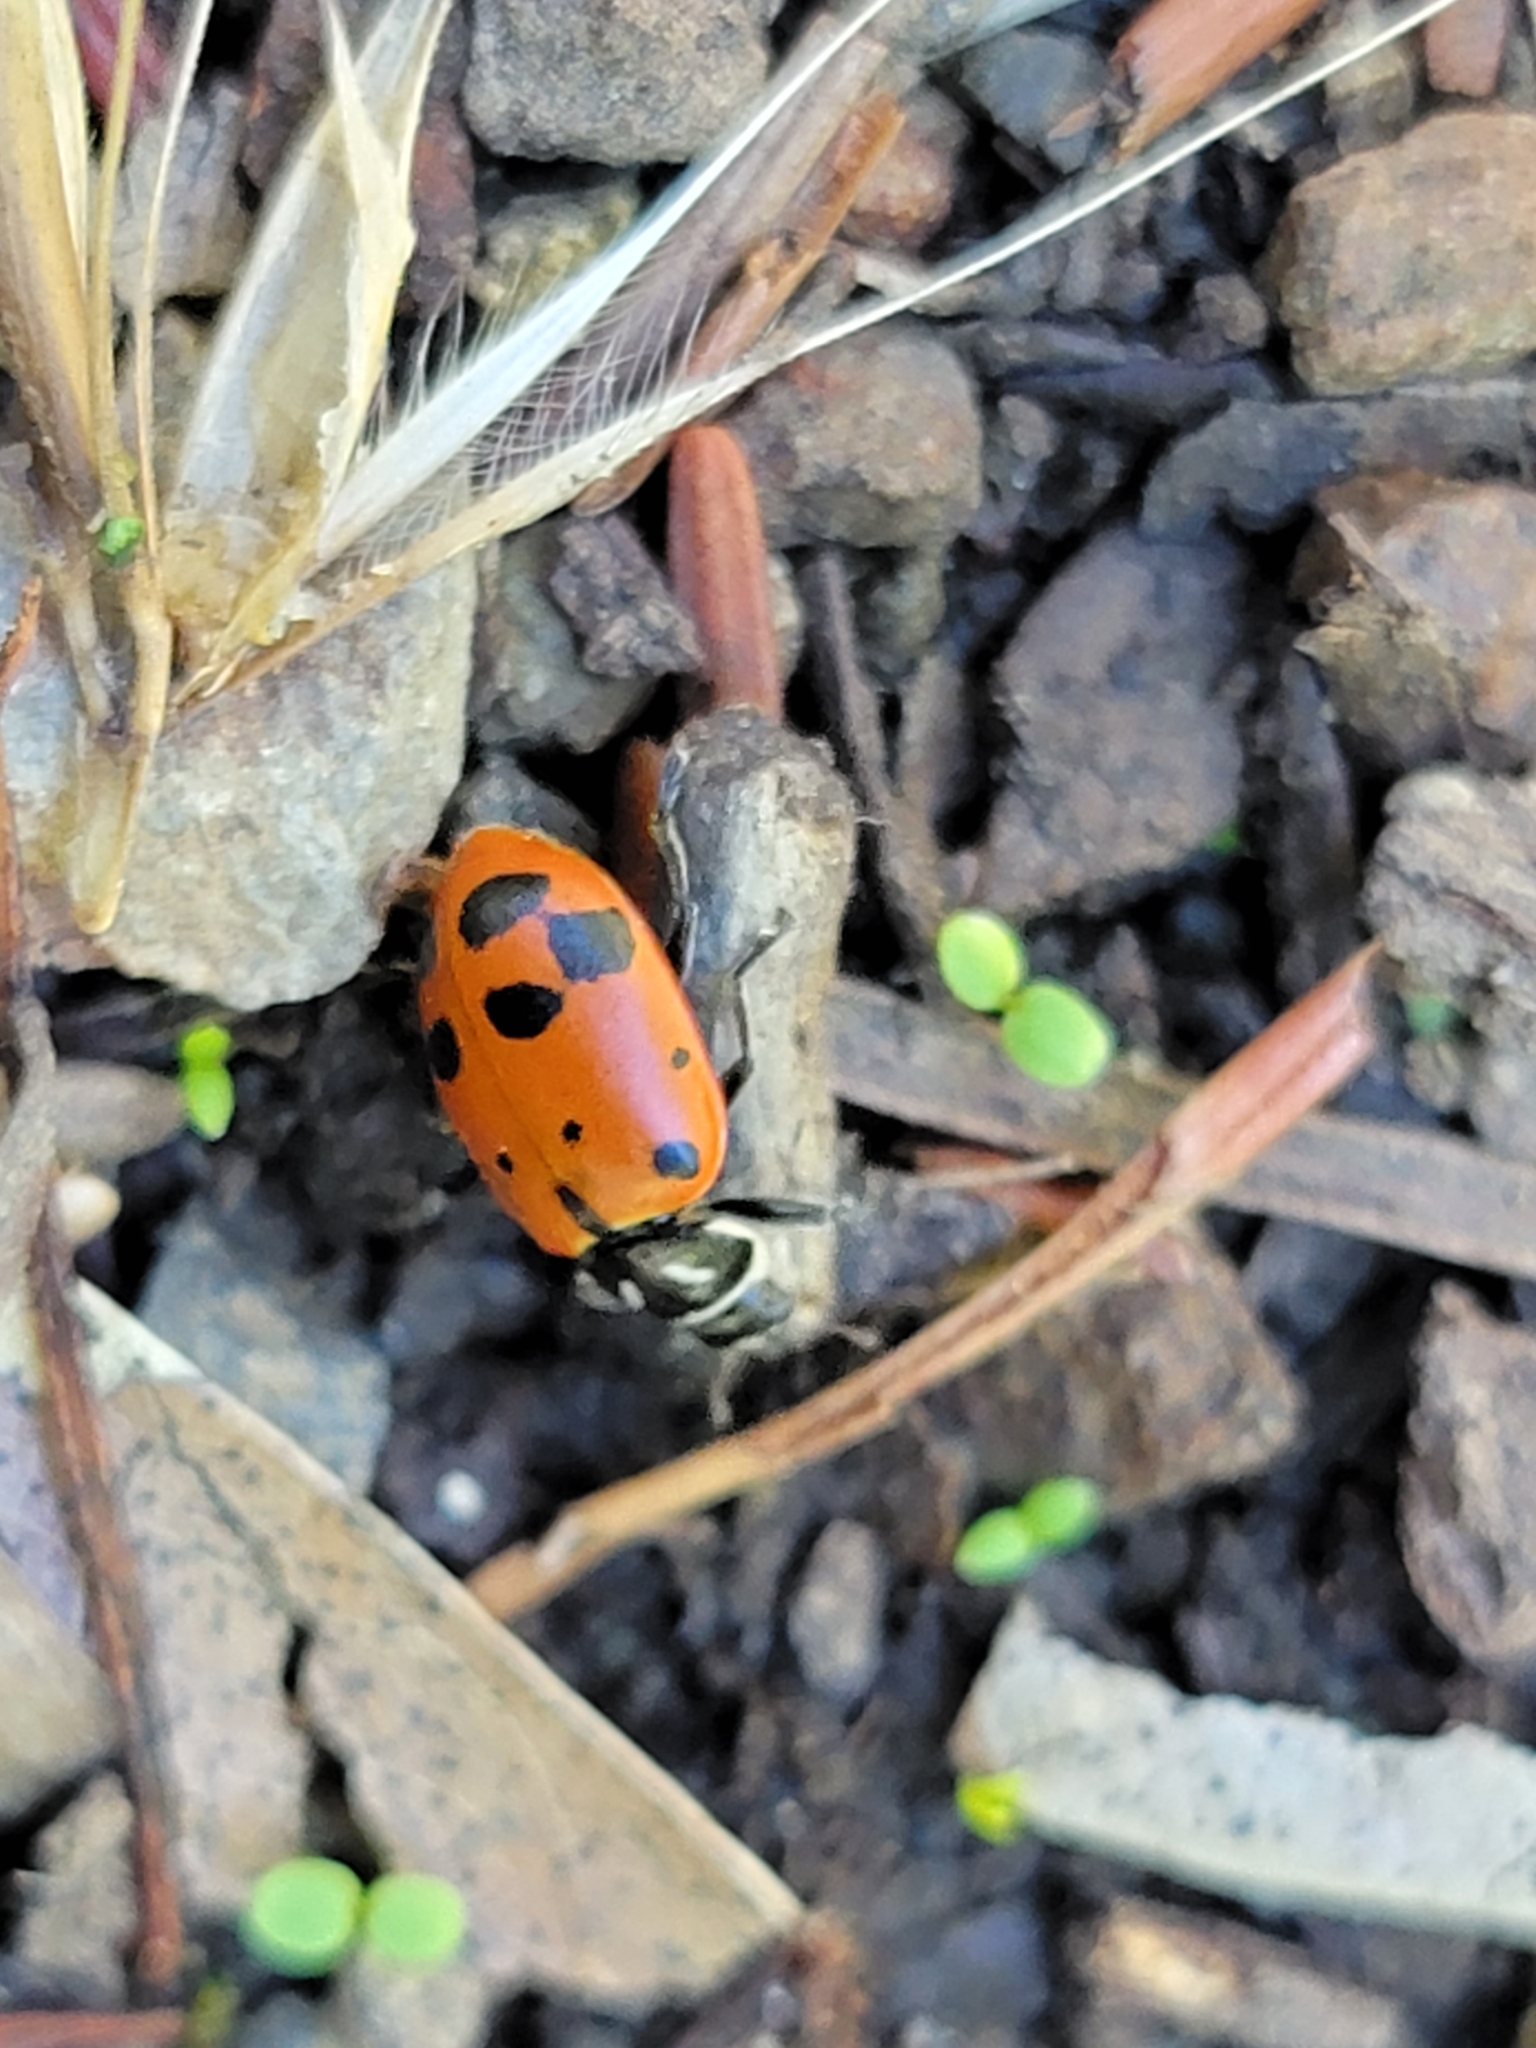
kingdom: Animalia
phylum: Arthropoda
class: Insecta
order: Coleoptera
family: Coccinellidae
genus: Hippodamia
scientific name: Hippodamia convergens
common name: Convergent lady beetle
